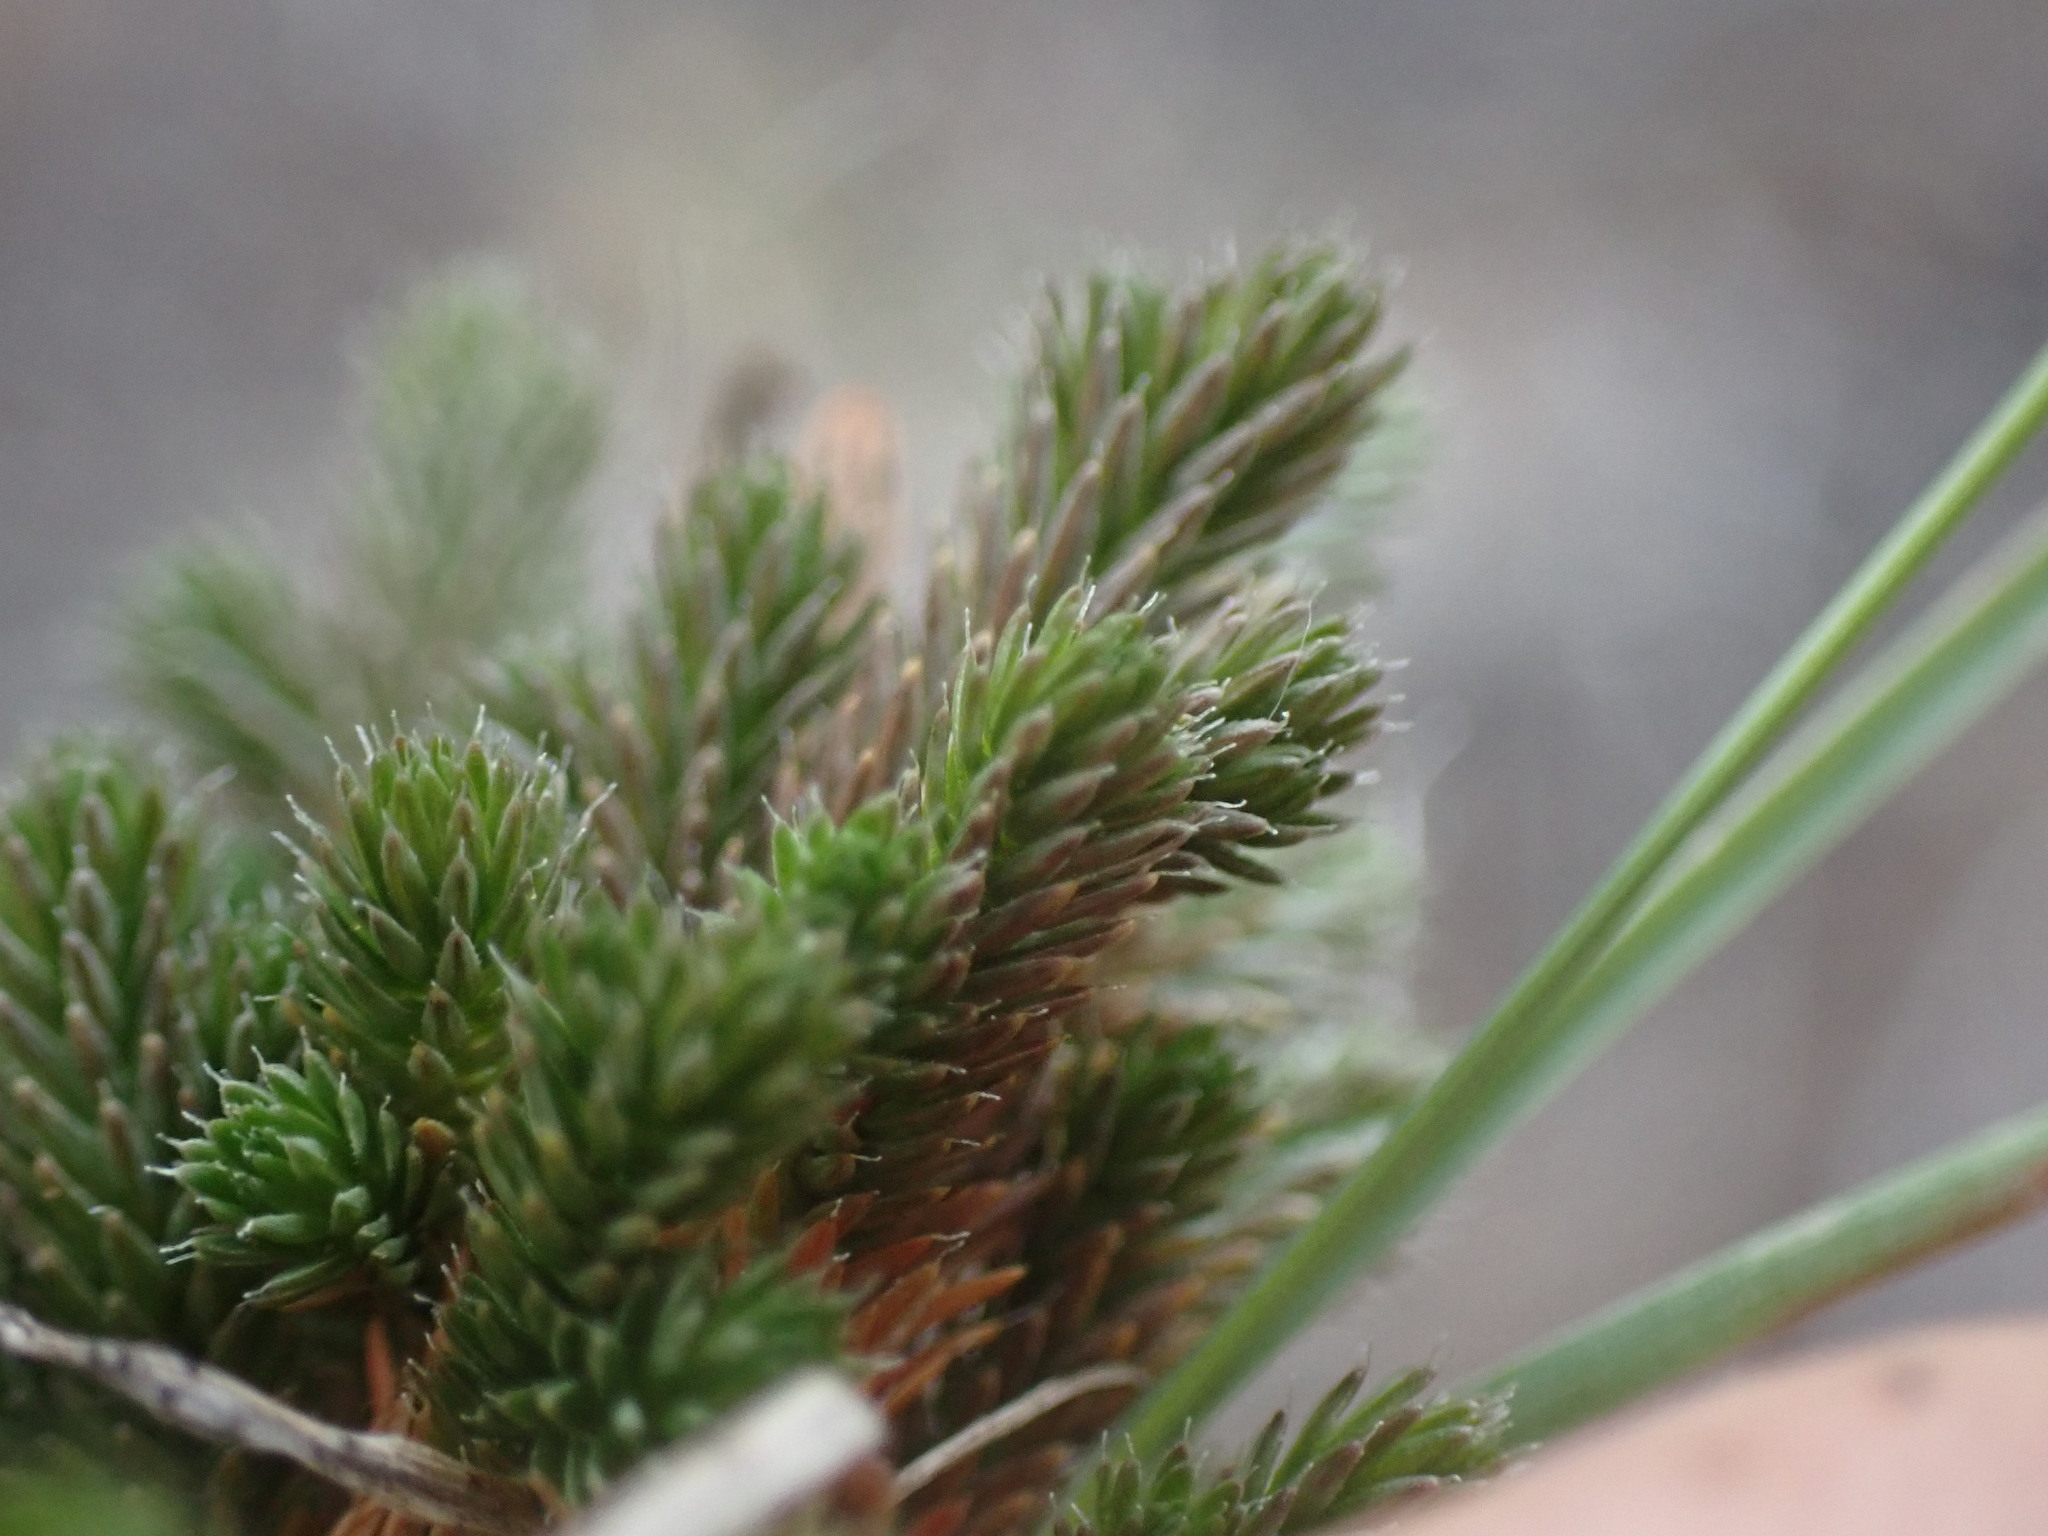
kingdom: Plantae
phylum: Tracheophyta
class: Lycopodiopsida
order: Selaginellales
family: Selaginellaceae
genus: Selaginella
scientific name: Selaginella densa
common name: Mountain spike-moss
